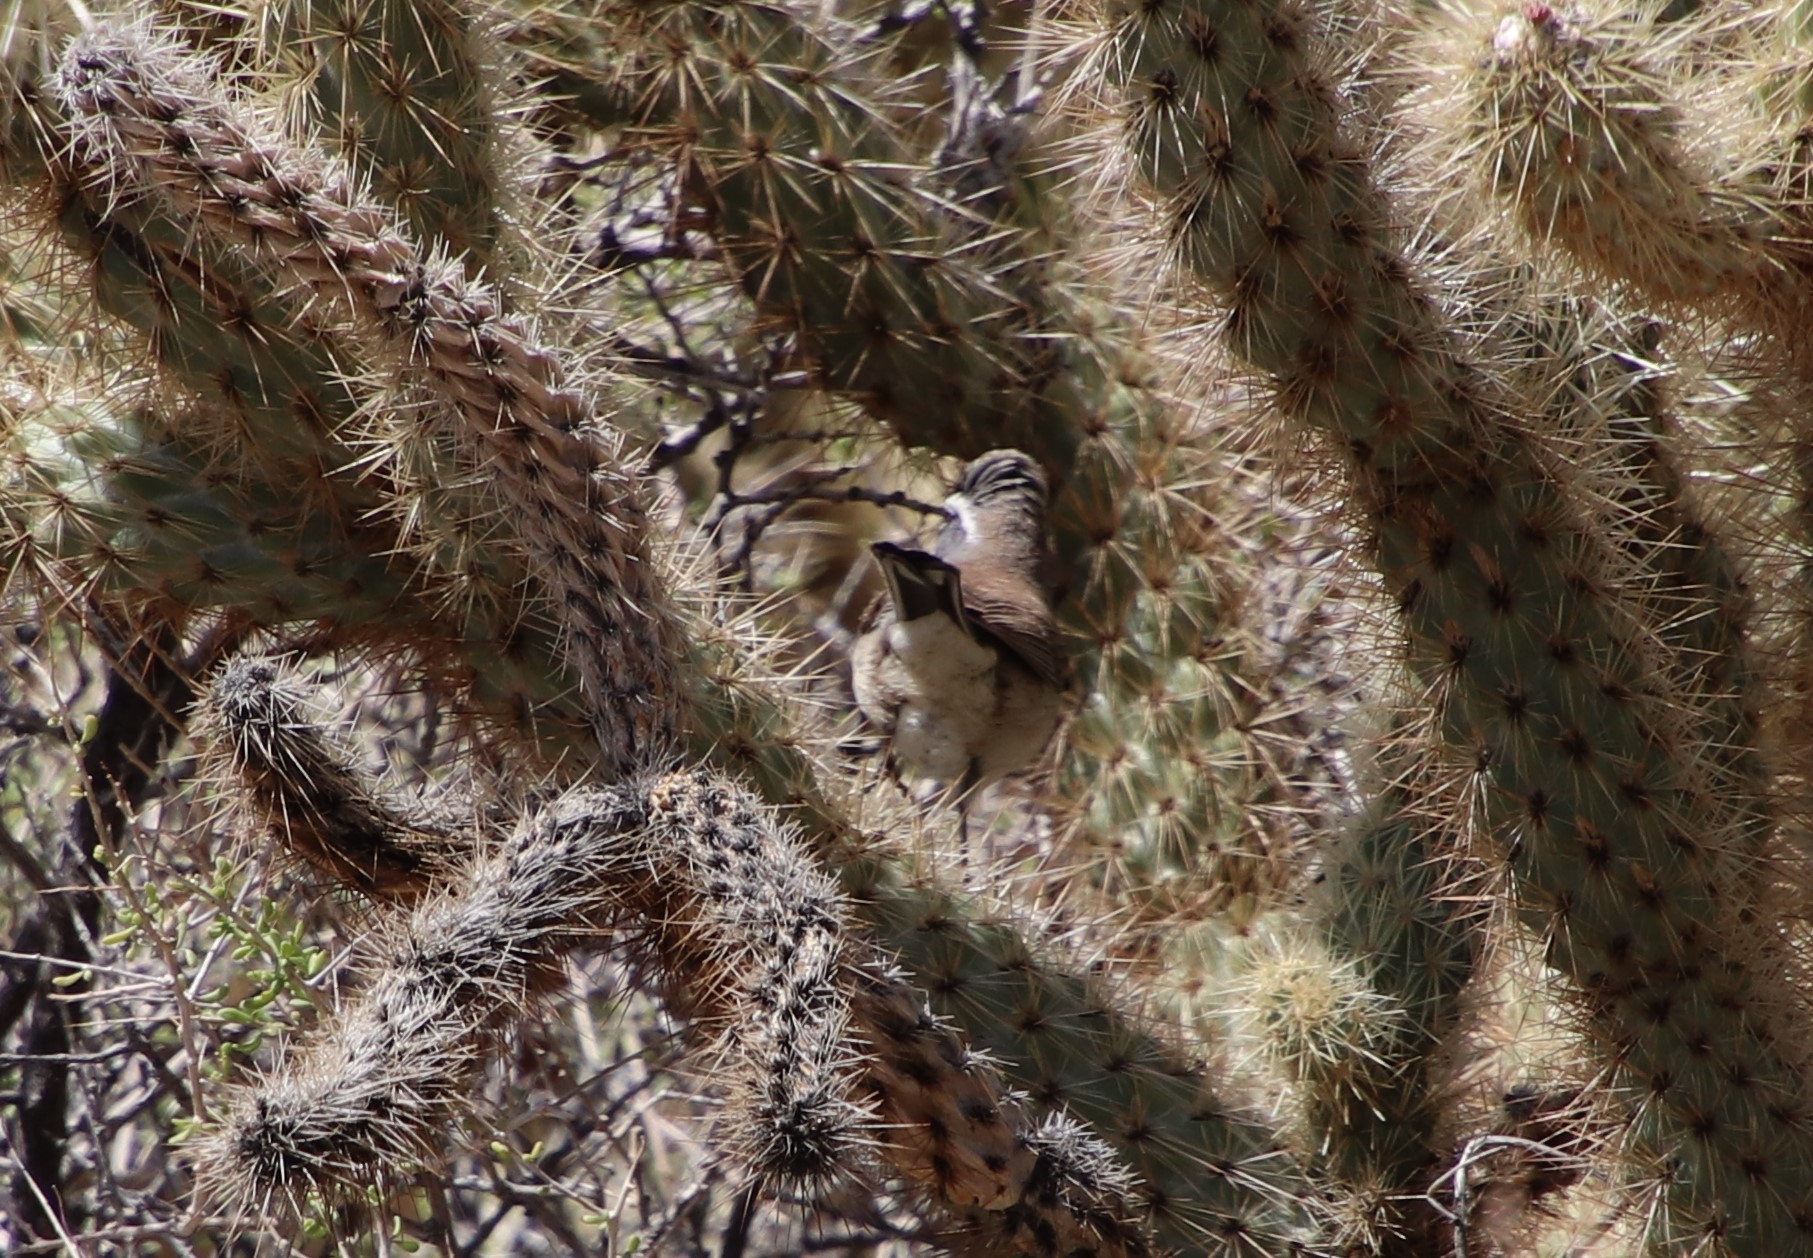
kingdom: Animalia
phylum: Chordata
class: Aves
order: Passeriformes
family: Passerellidae
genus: Amphispiza
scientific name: Amphispiza bilineata
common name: Black-throated sparrow
